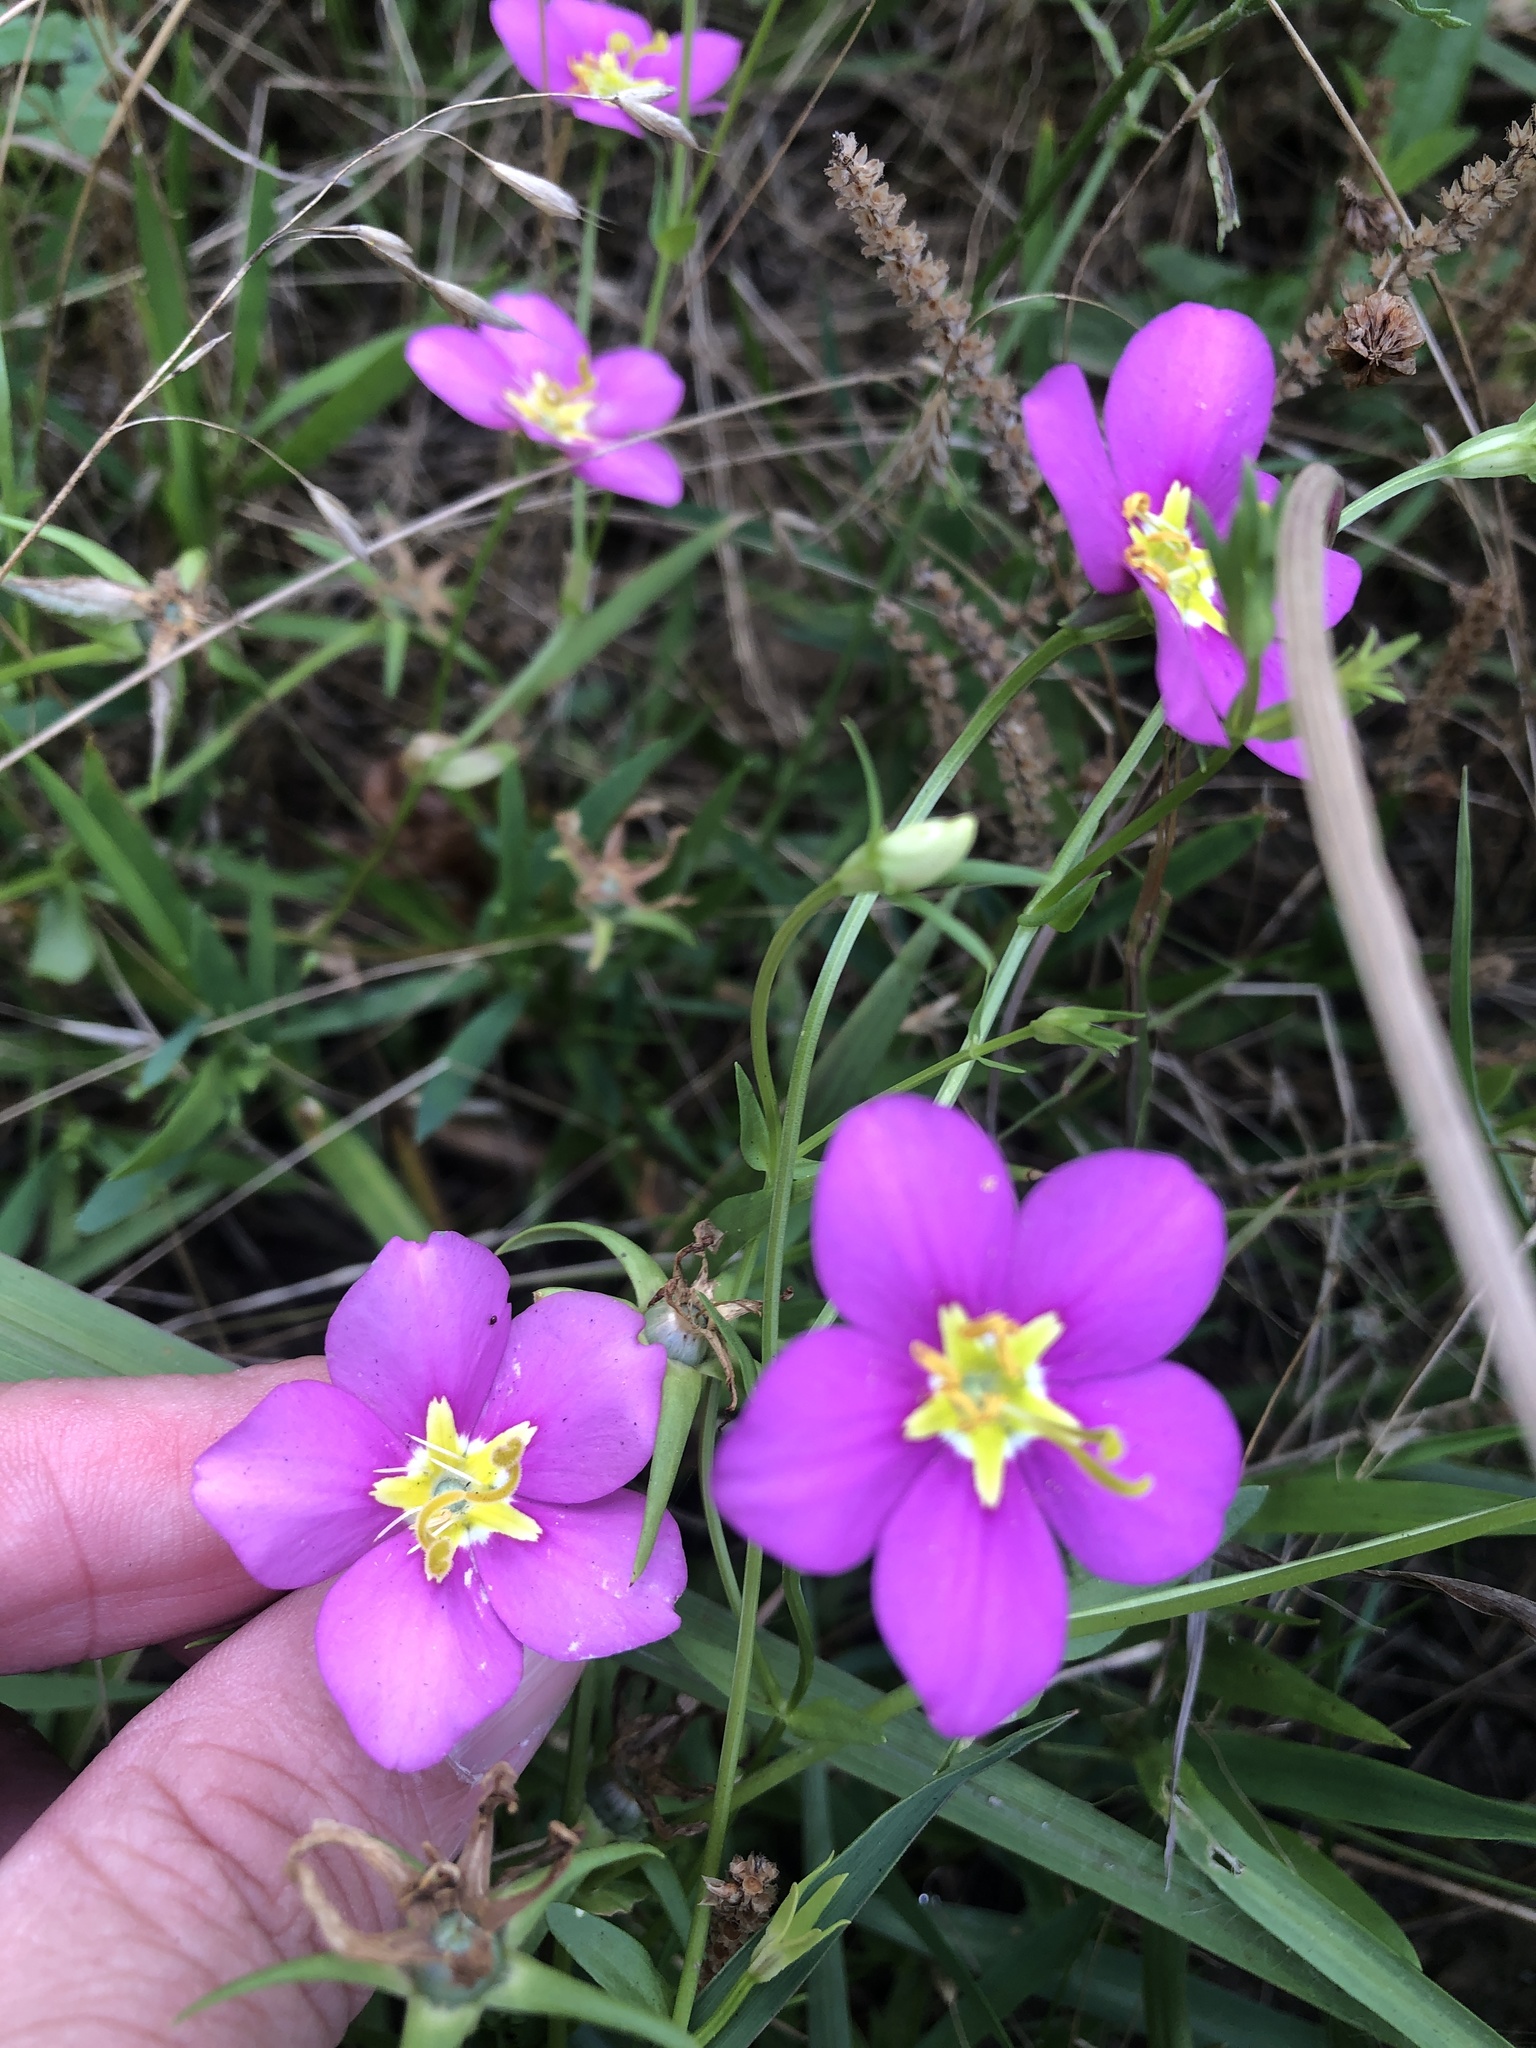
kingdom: Plantae
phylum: Tracheophyta
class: Magnoliopsida
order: Gentianales
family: Gentianaceae
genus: Sabatia
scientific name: Sabatia campestris
